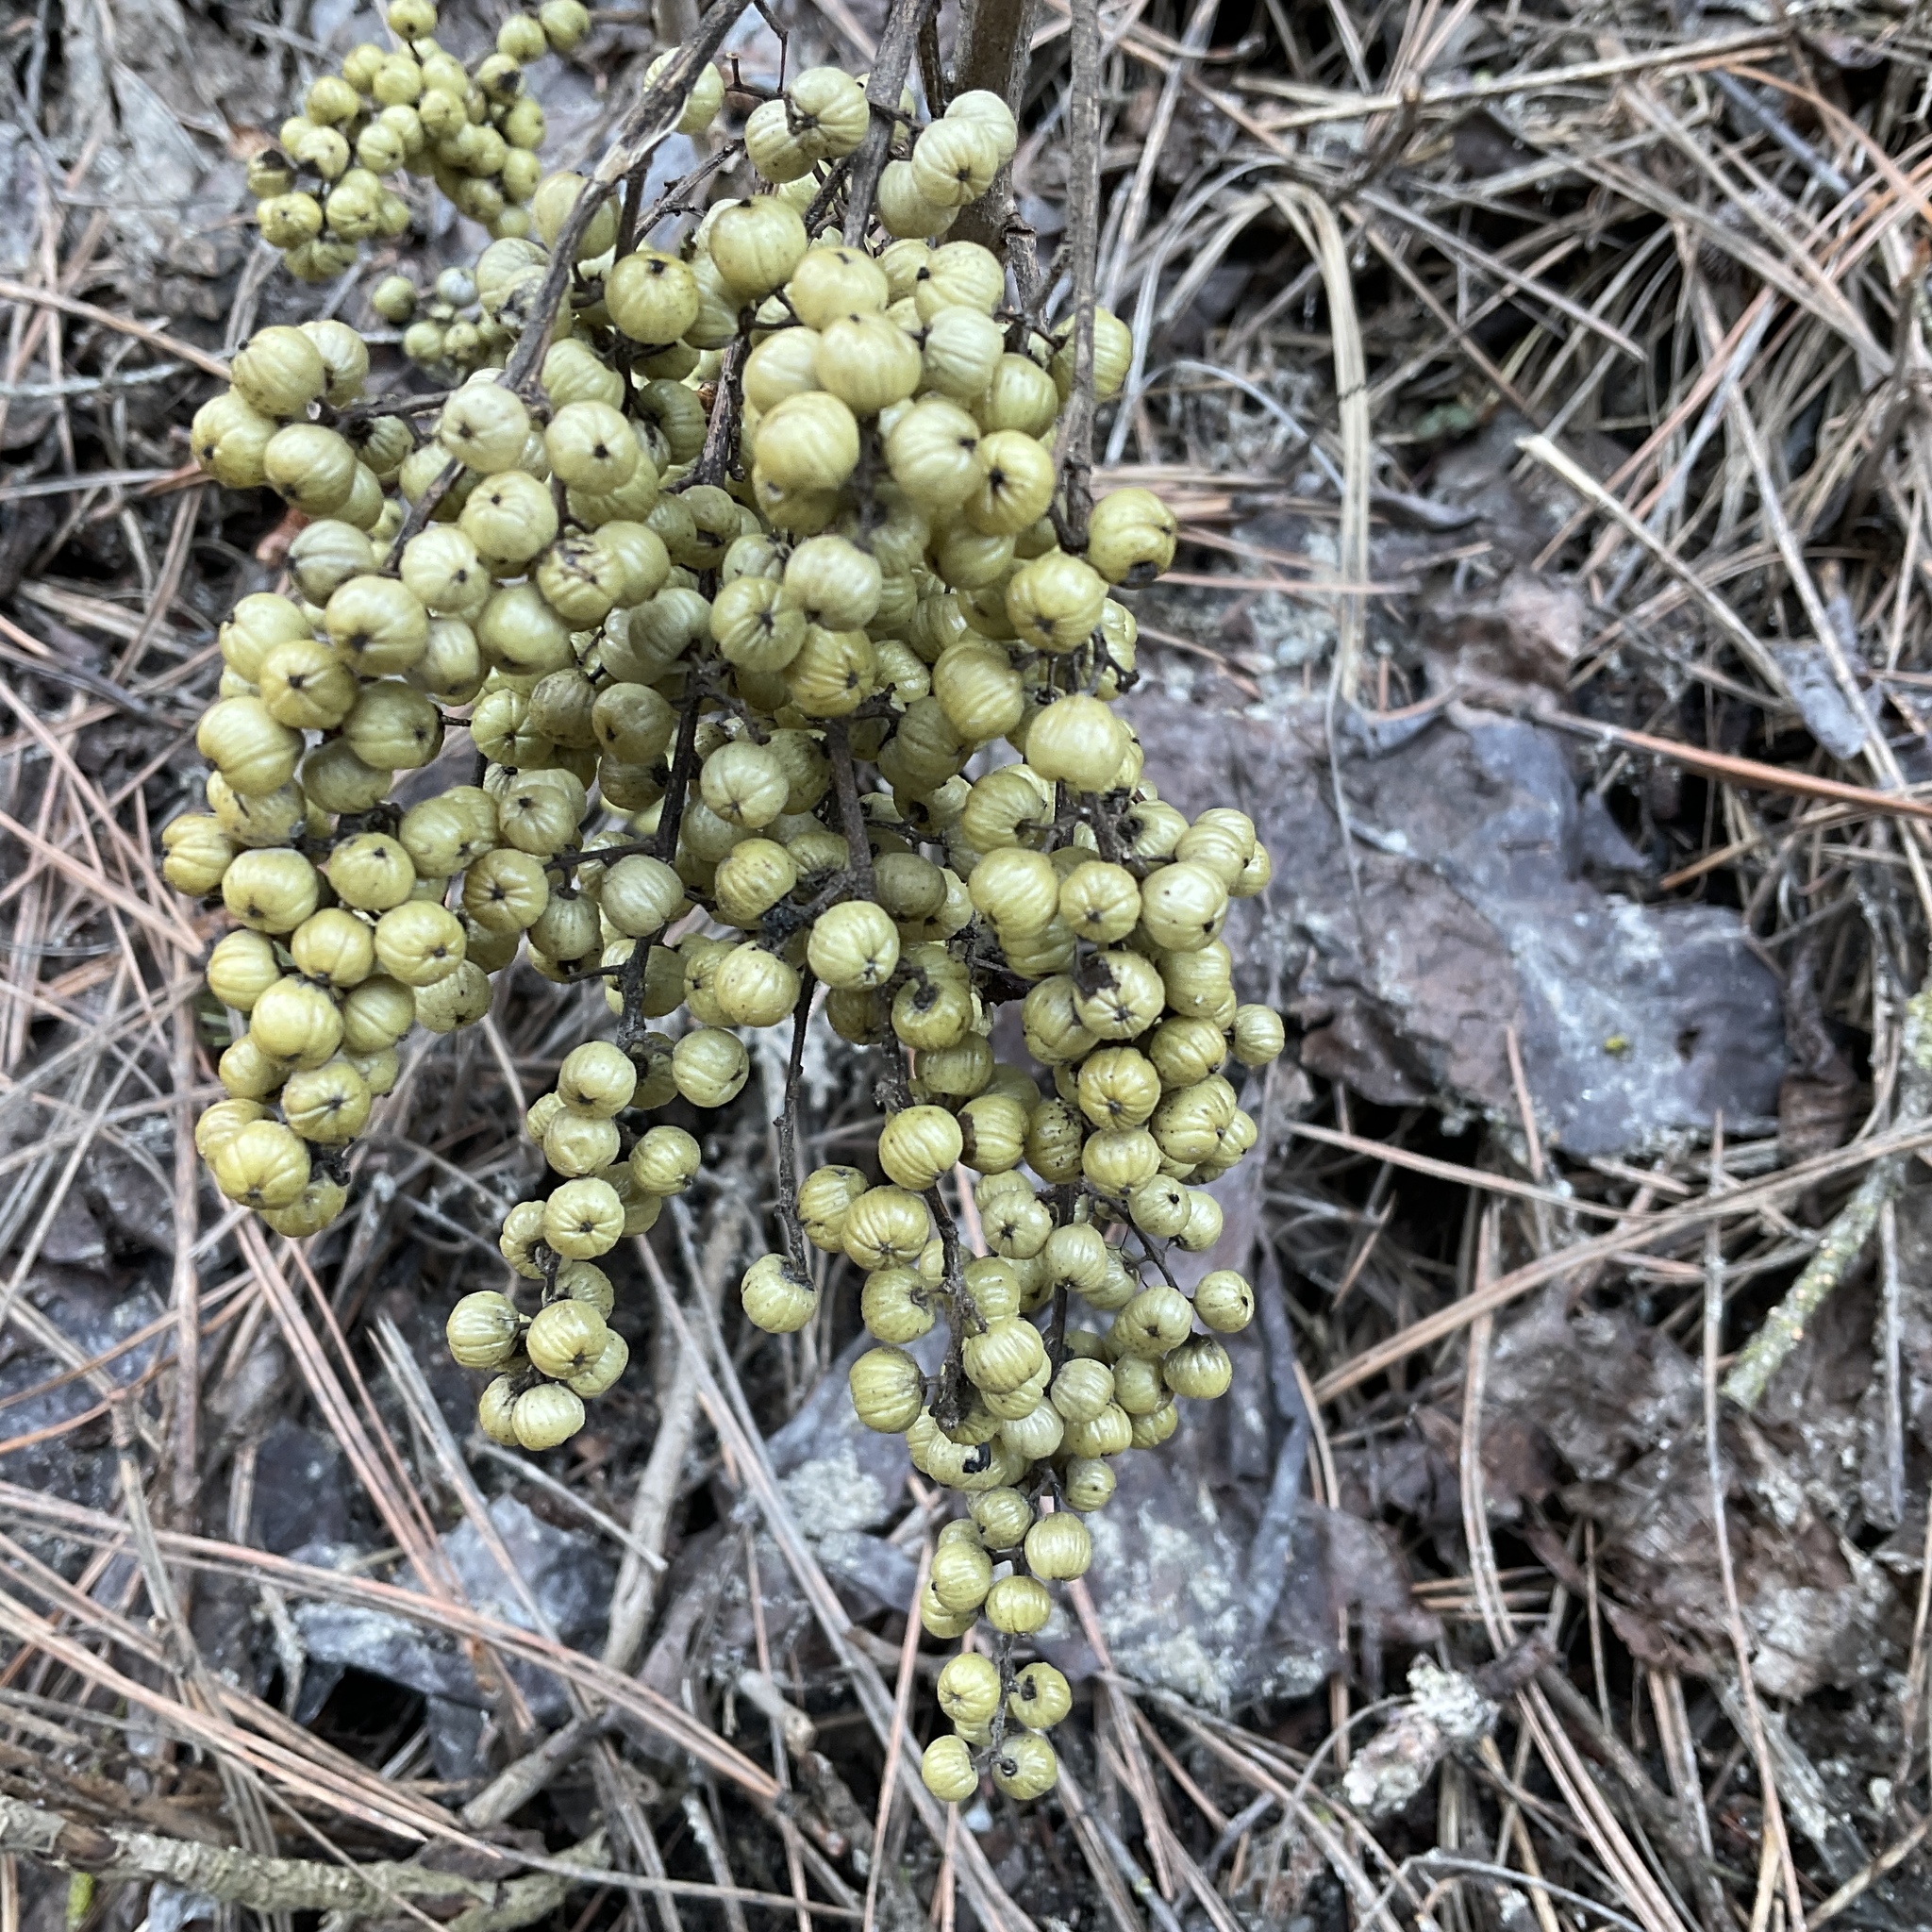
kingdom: Plantae
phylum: Tracheophyta
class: Magnoliopsida
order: Sapindales
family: Anacardiaceae
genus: Toxicodendron
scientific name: Toxicodendron rydbergii
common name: Rydberg's poison-ivy
